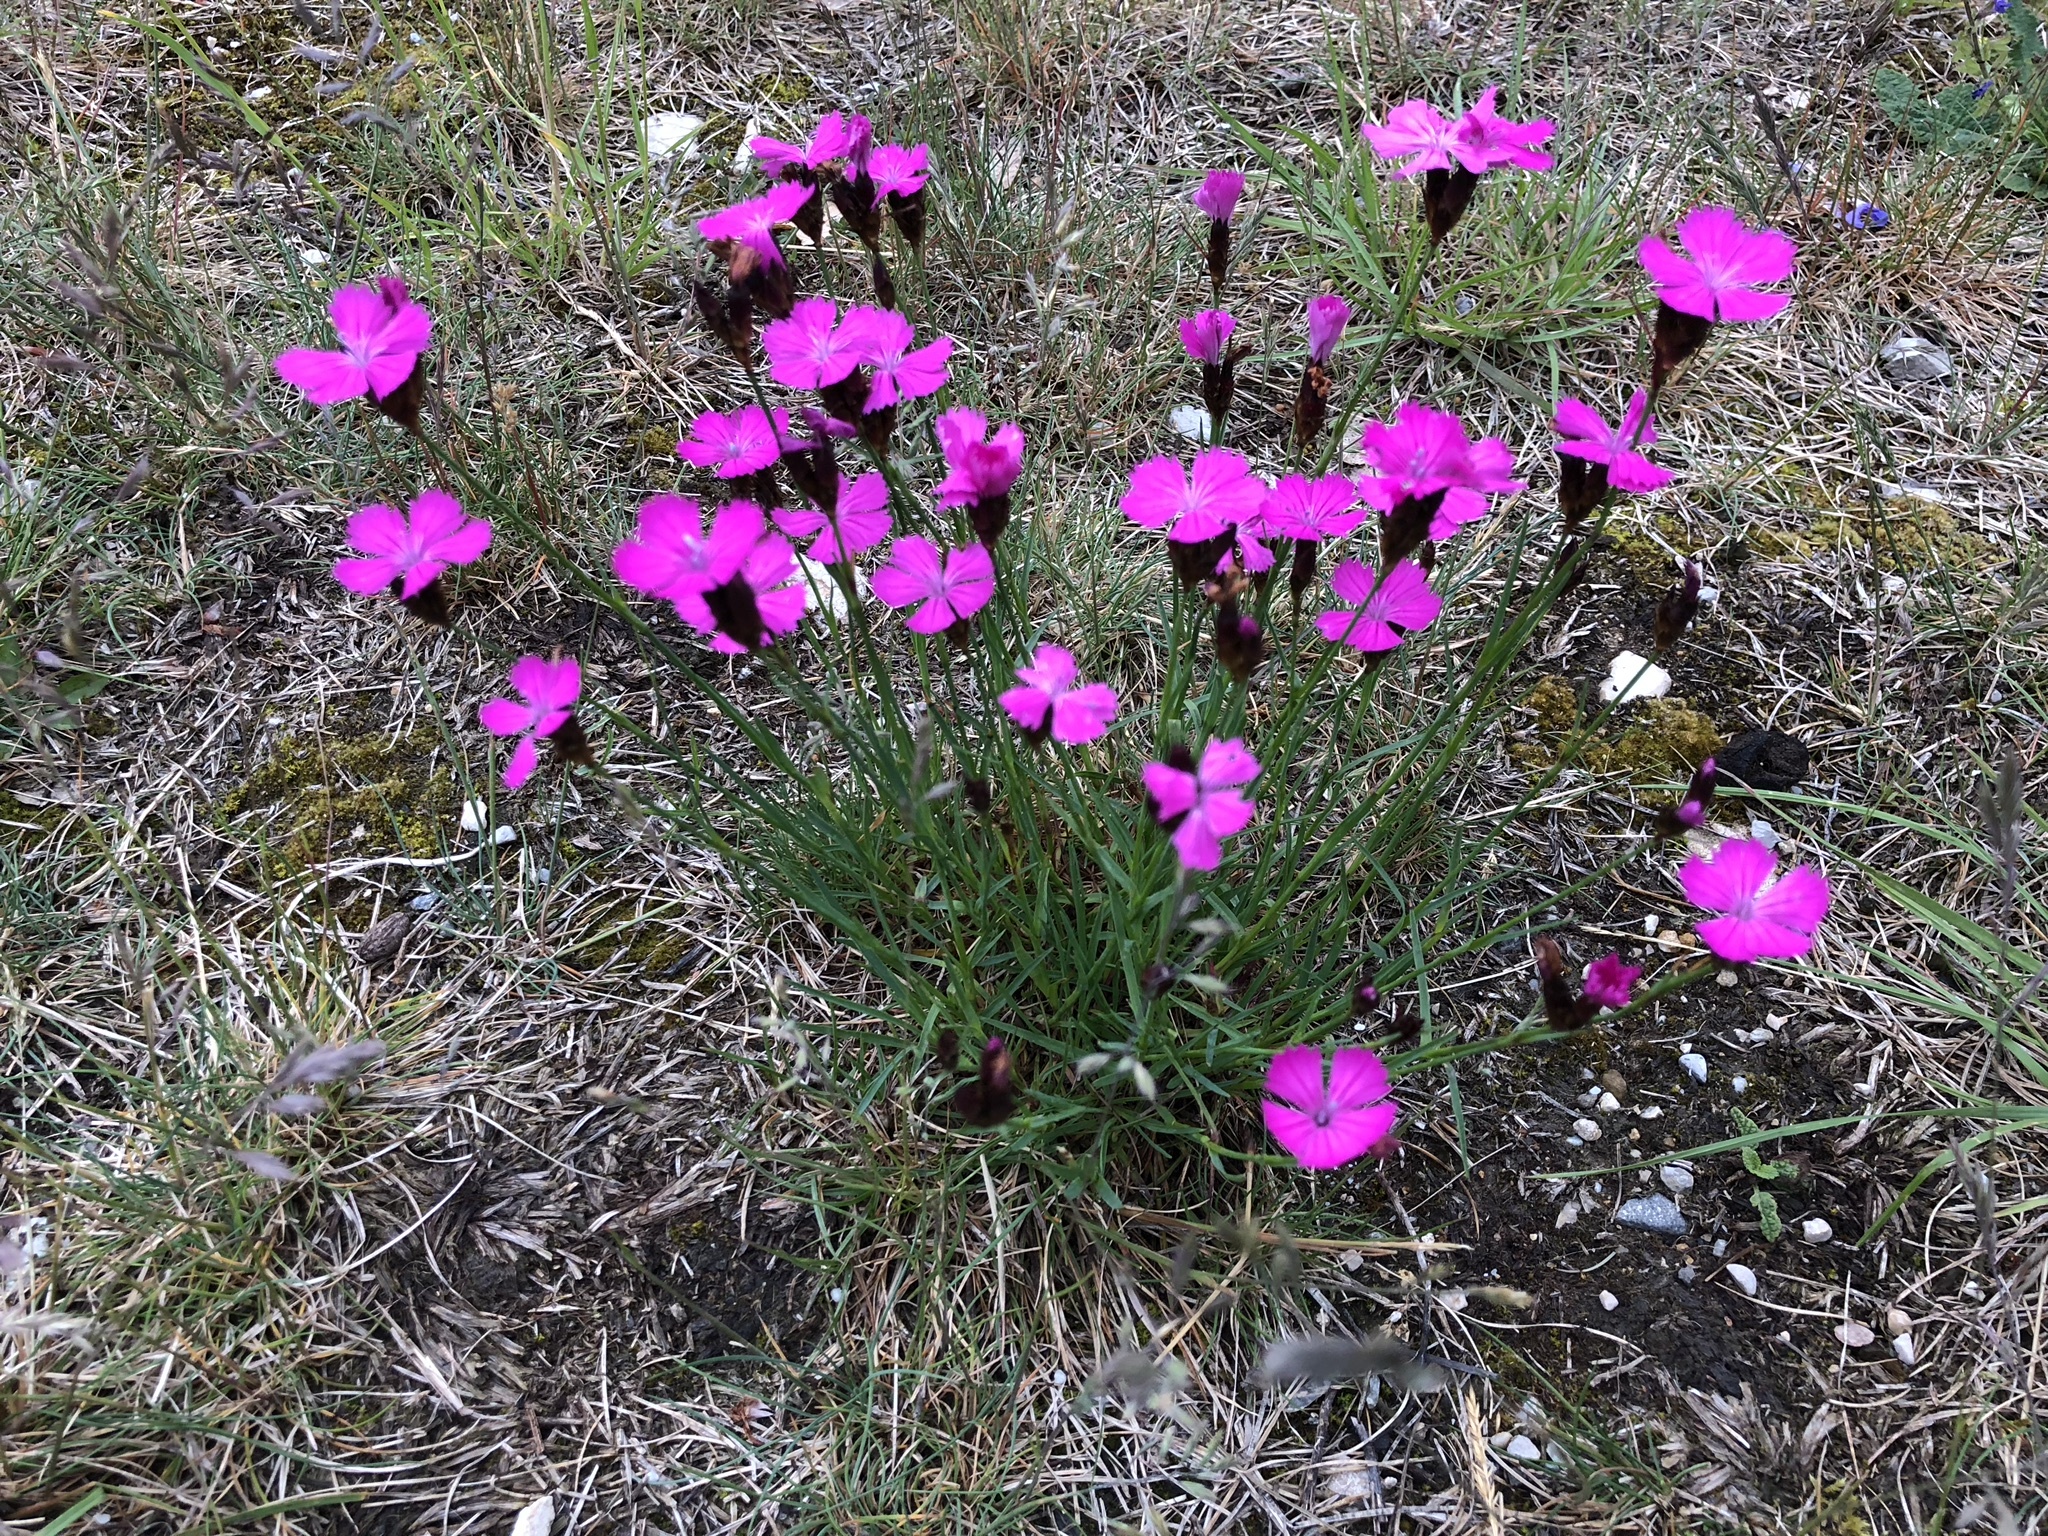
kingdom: Plantae
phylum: Tracheophyta
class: Magnoliopsida
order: Caryophyllales
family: Caryophyllaceae
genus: Dianthus
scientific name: Dianthus carthusianorum
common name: Carthusian pink
